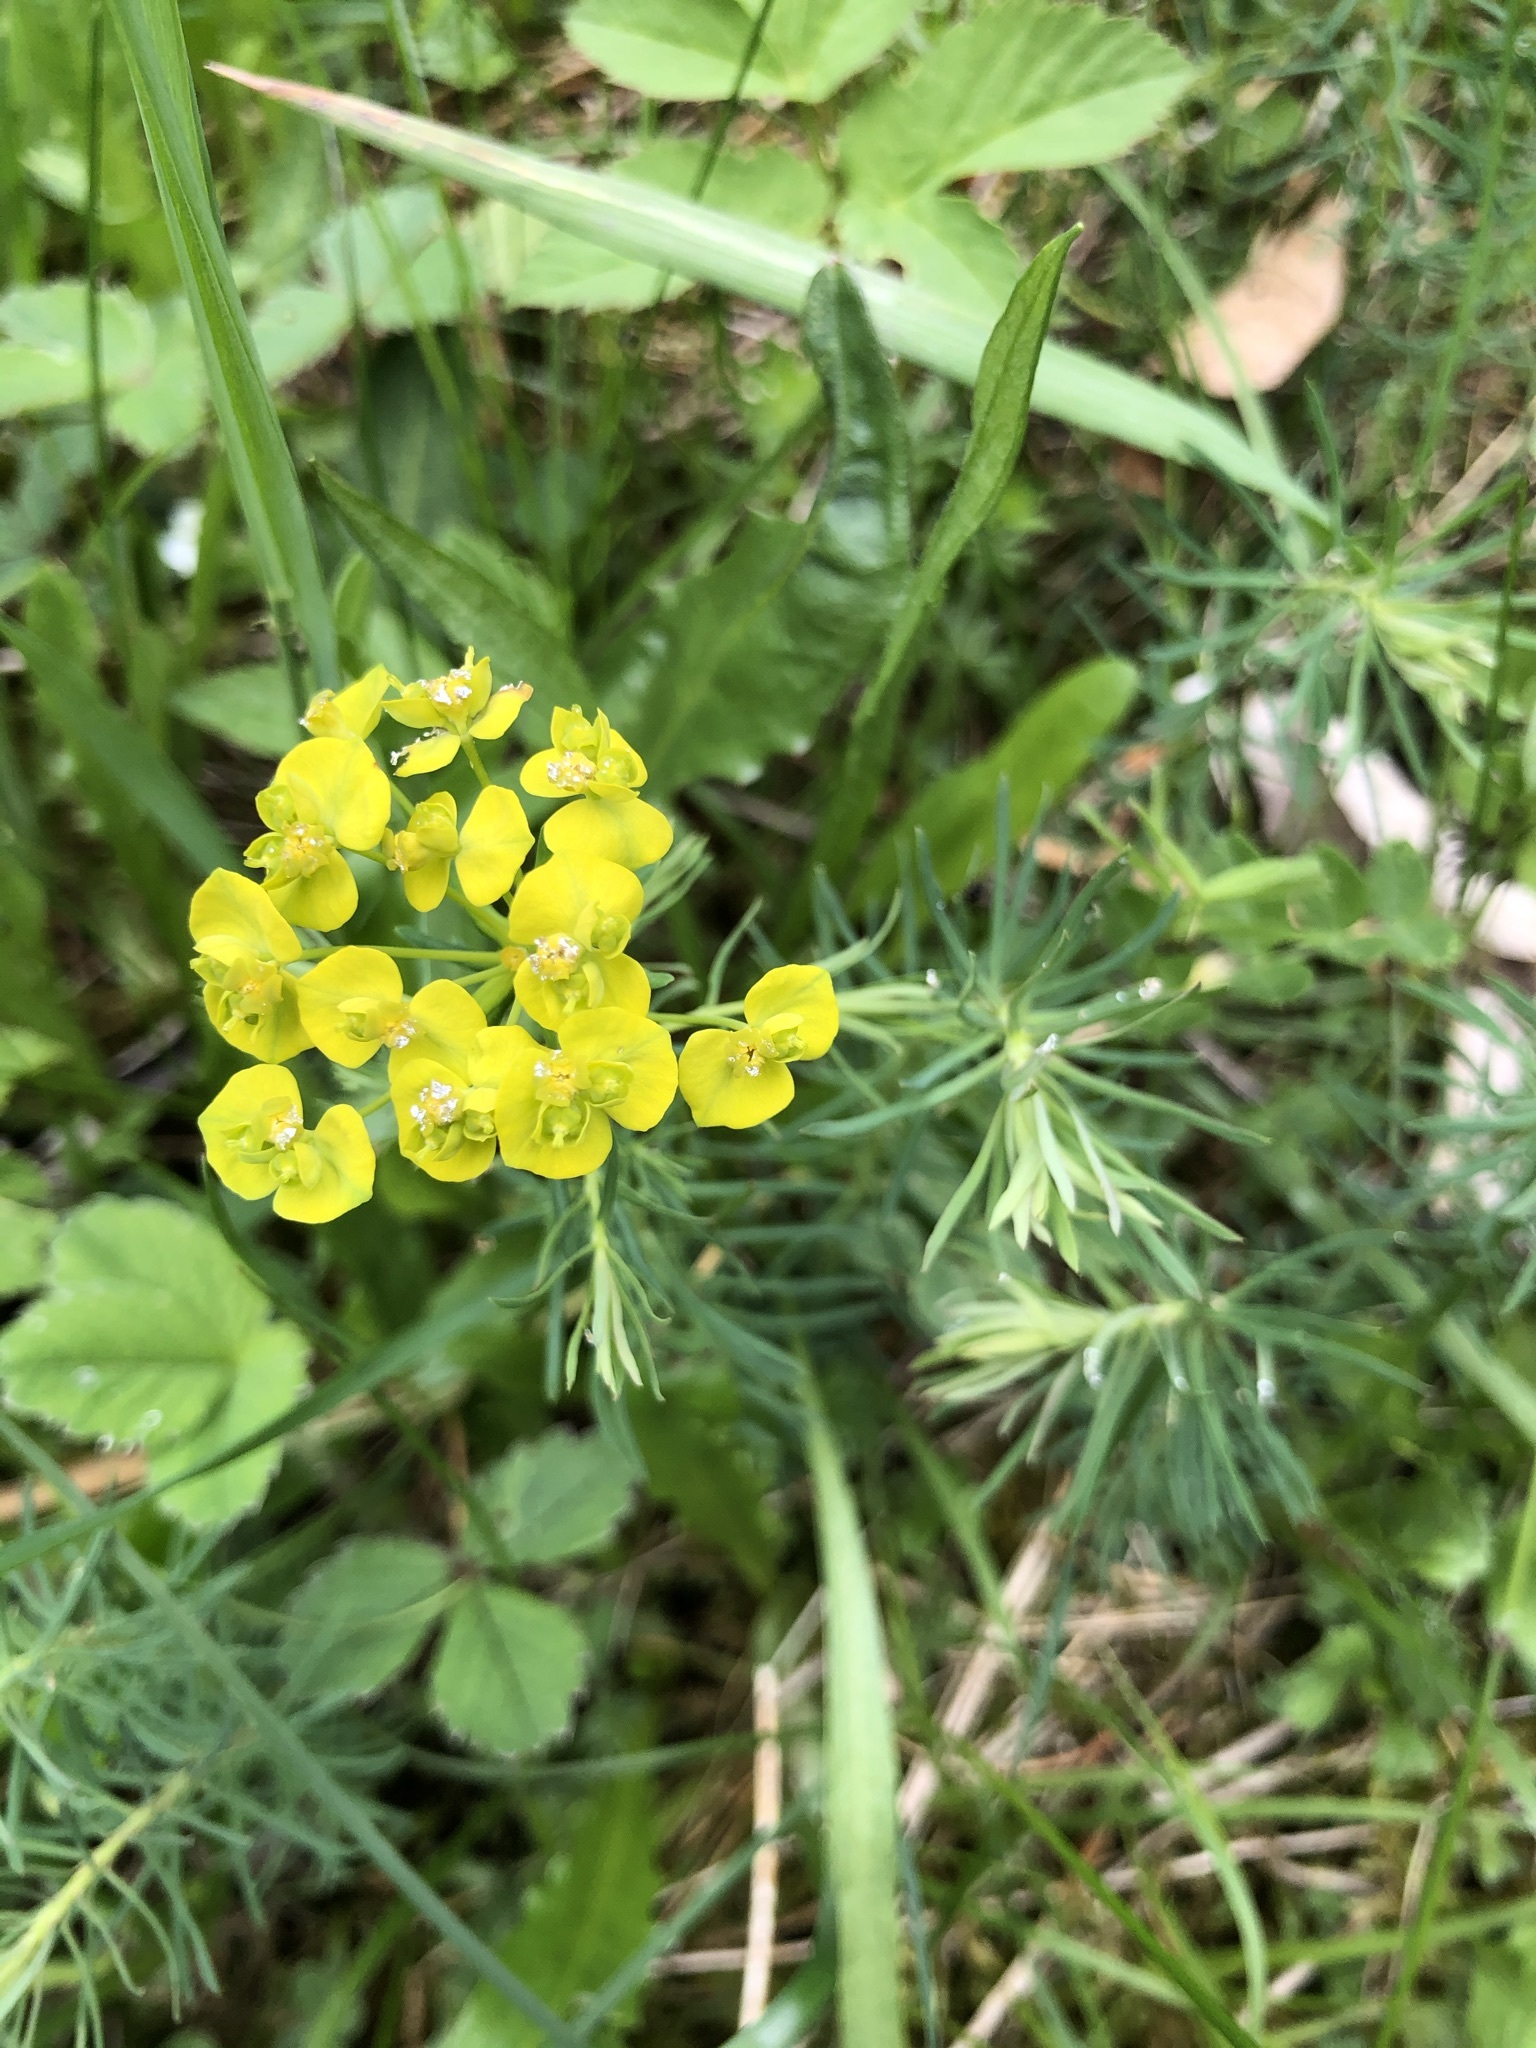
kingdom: Plantae
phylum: Tracheophyta
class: Magnoliopsida
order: Malpighiales
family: Euphorbiaceae
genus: Euphorbia
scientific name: Euphorbia cyparissias
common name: Cypress spurge
